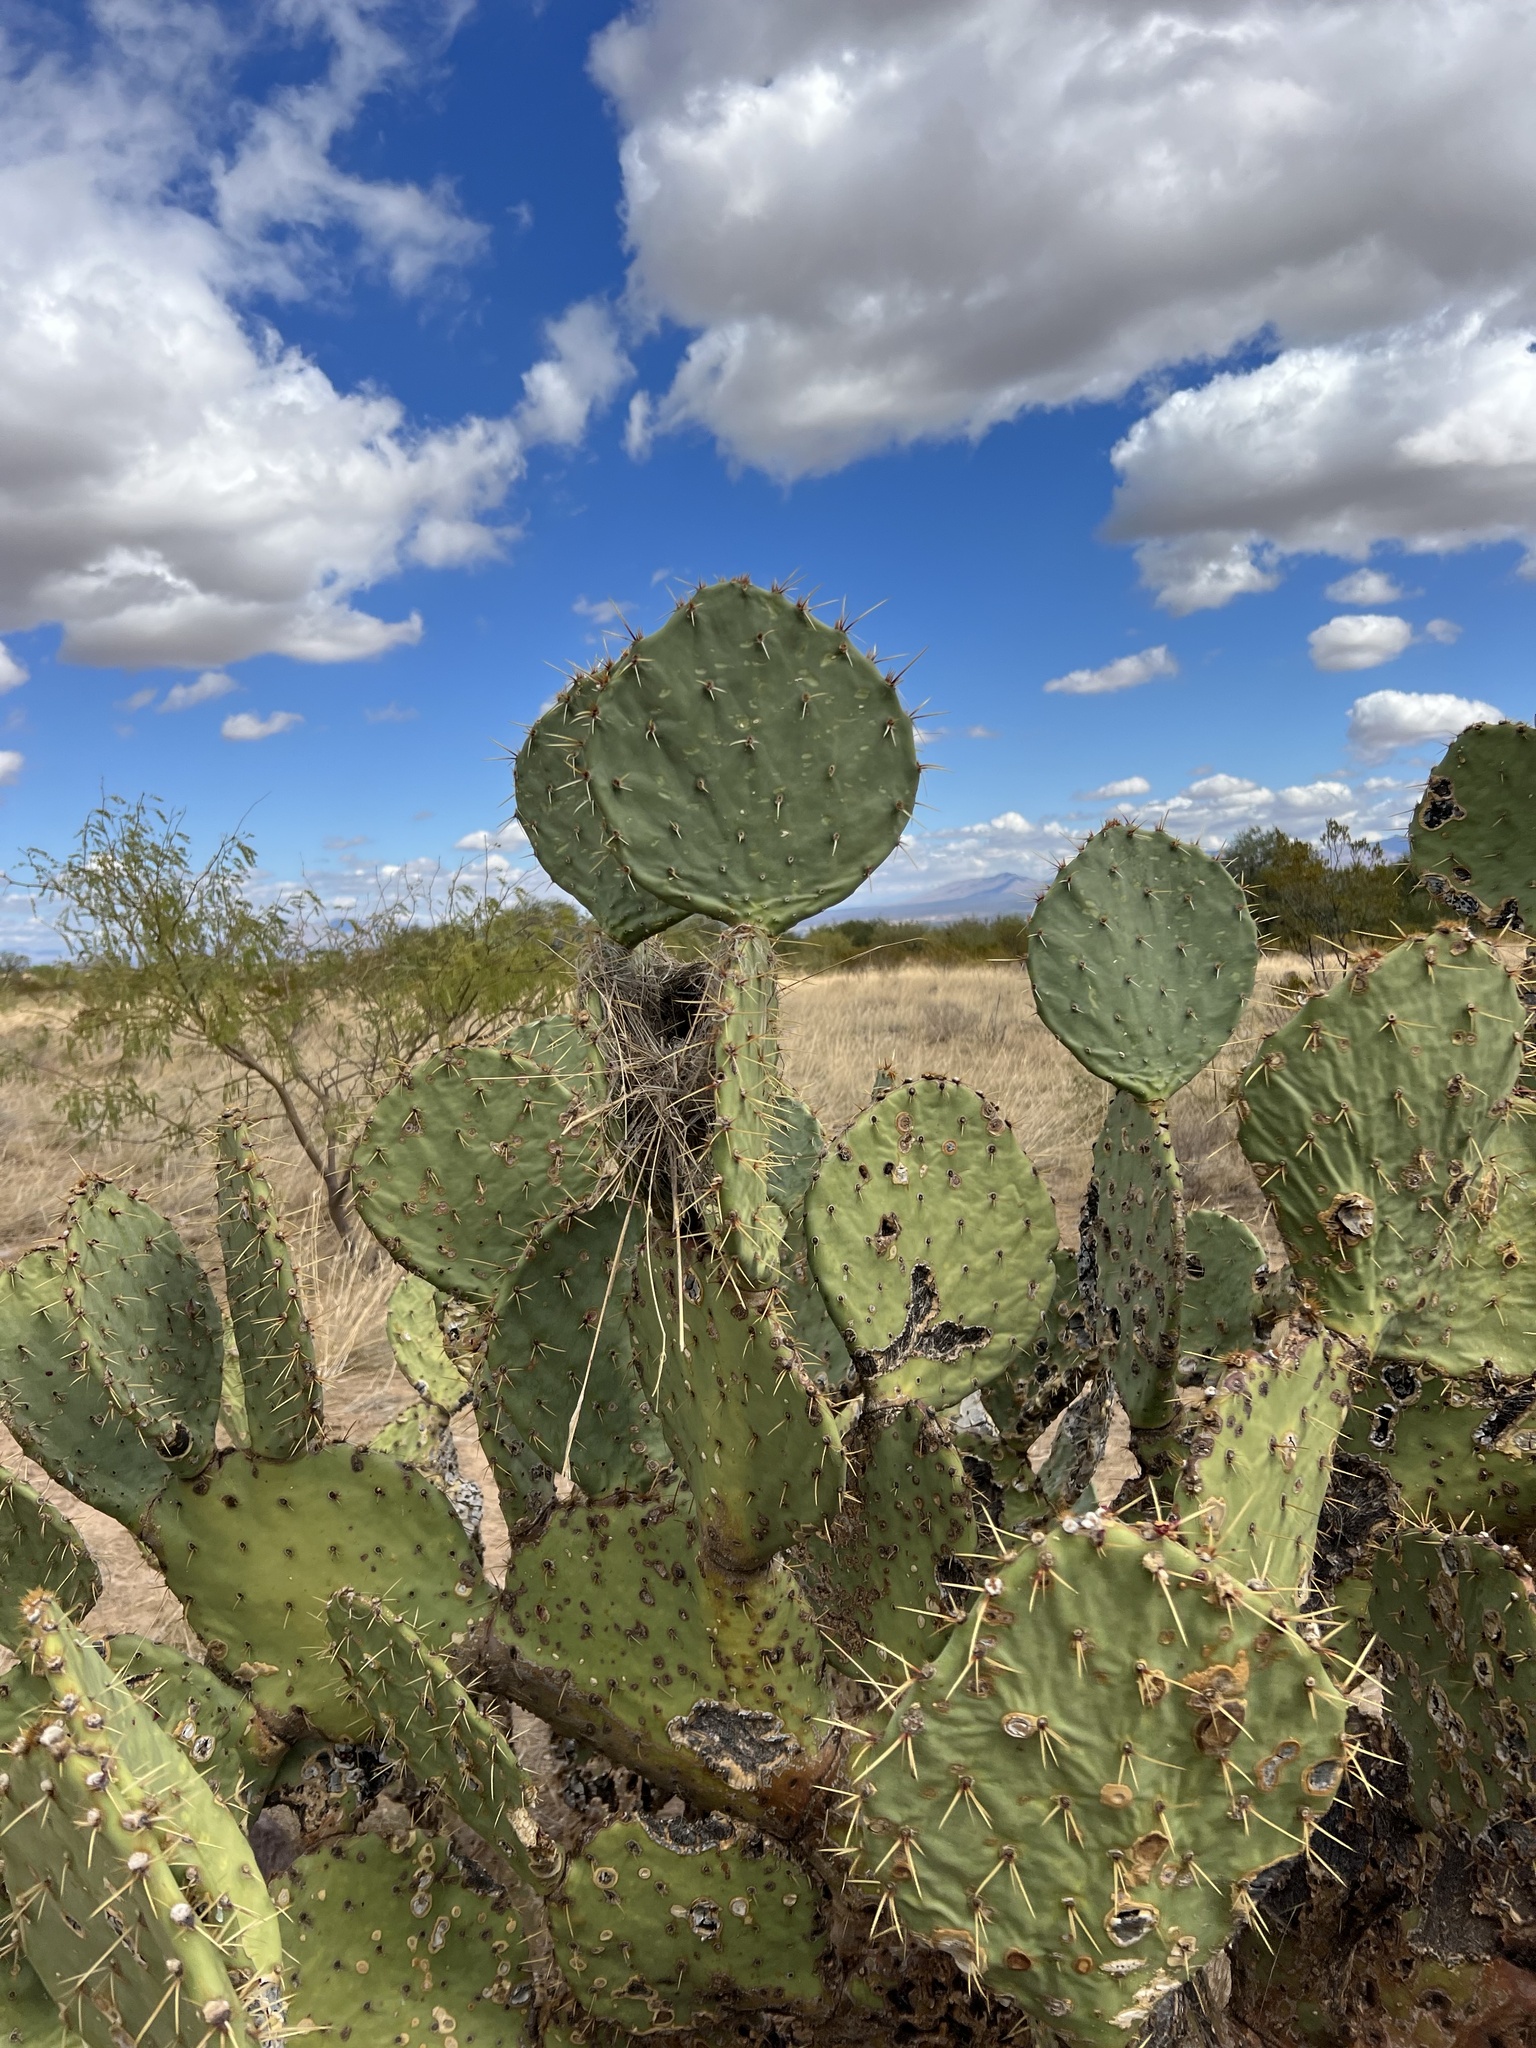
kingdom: Plantae
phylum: Tracheophyta
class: Magnoliopsida
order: Caryophyllales
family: Cactaceae
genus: Opuntia
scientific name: Opuntia engelmannii
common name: Cactus-apple
